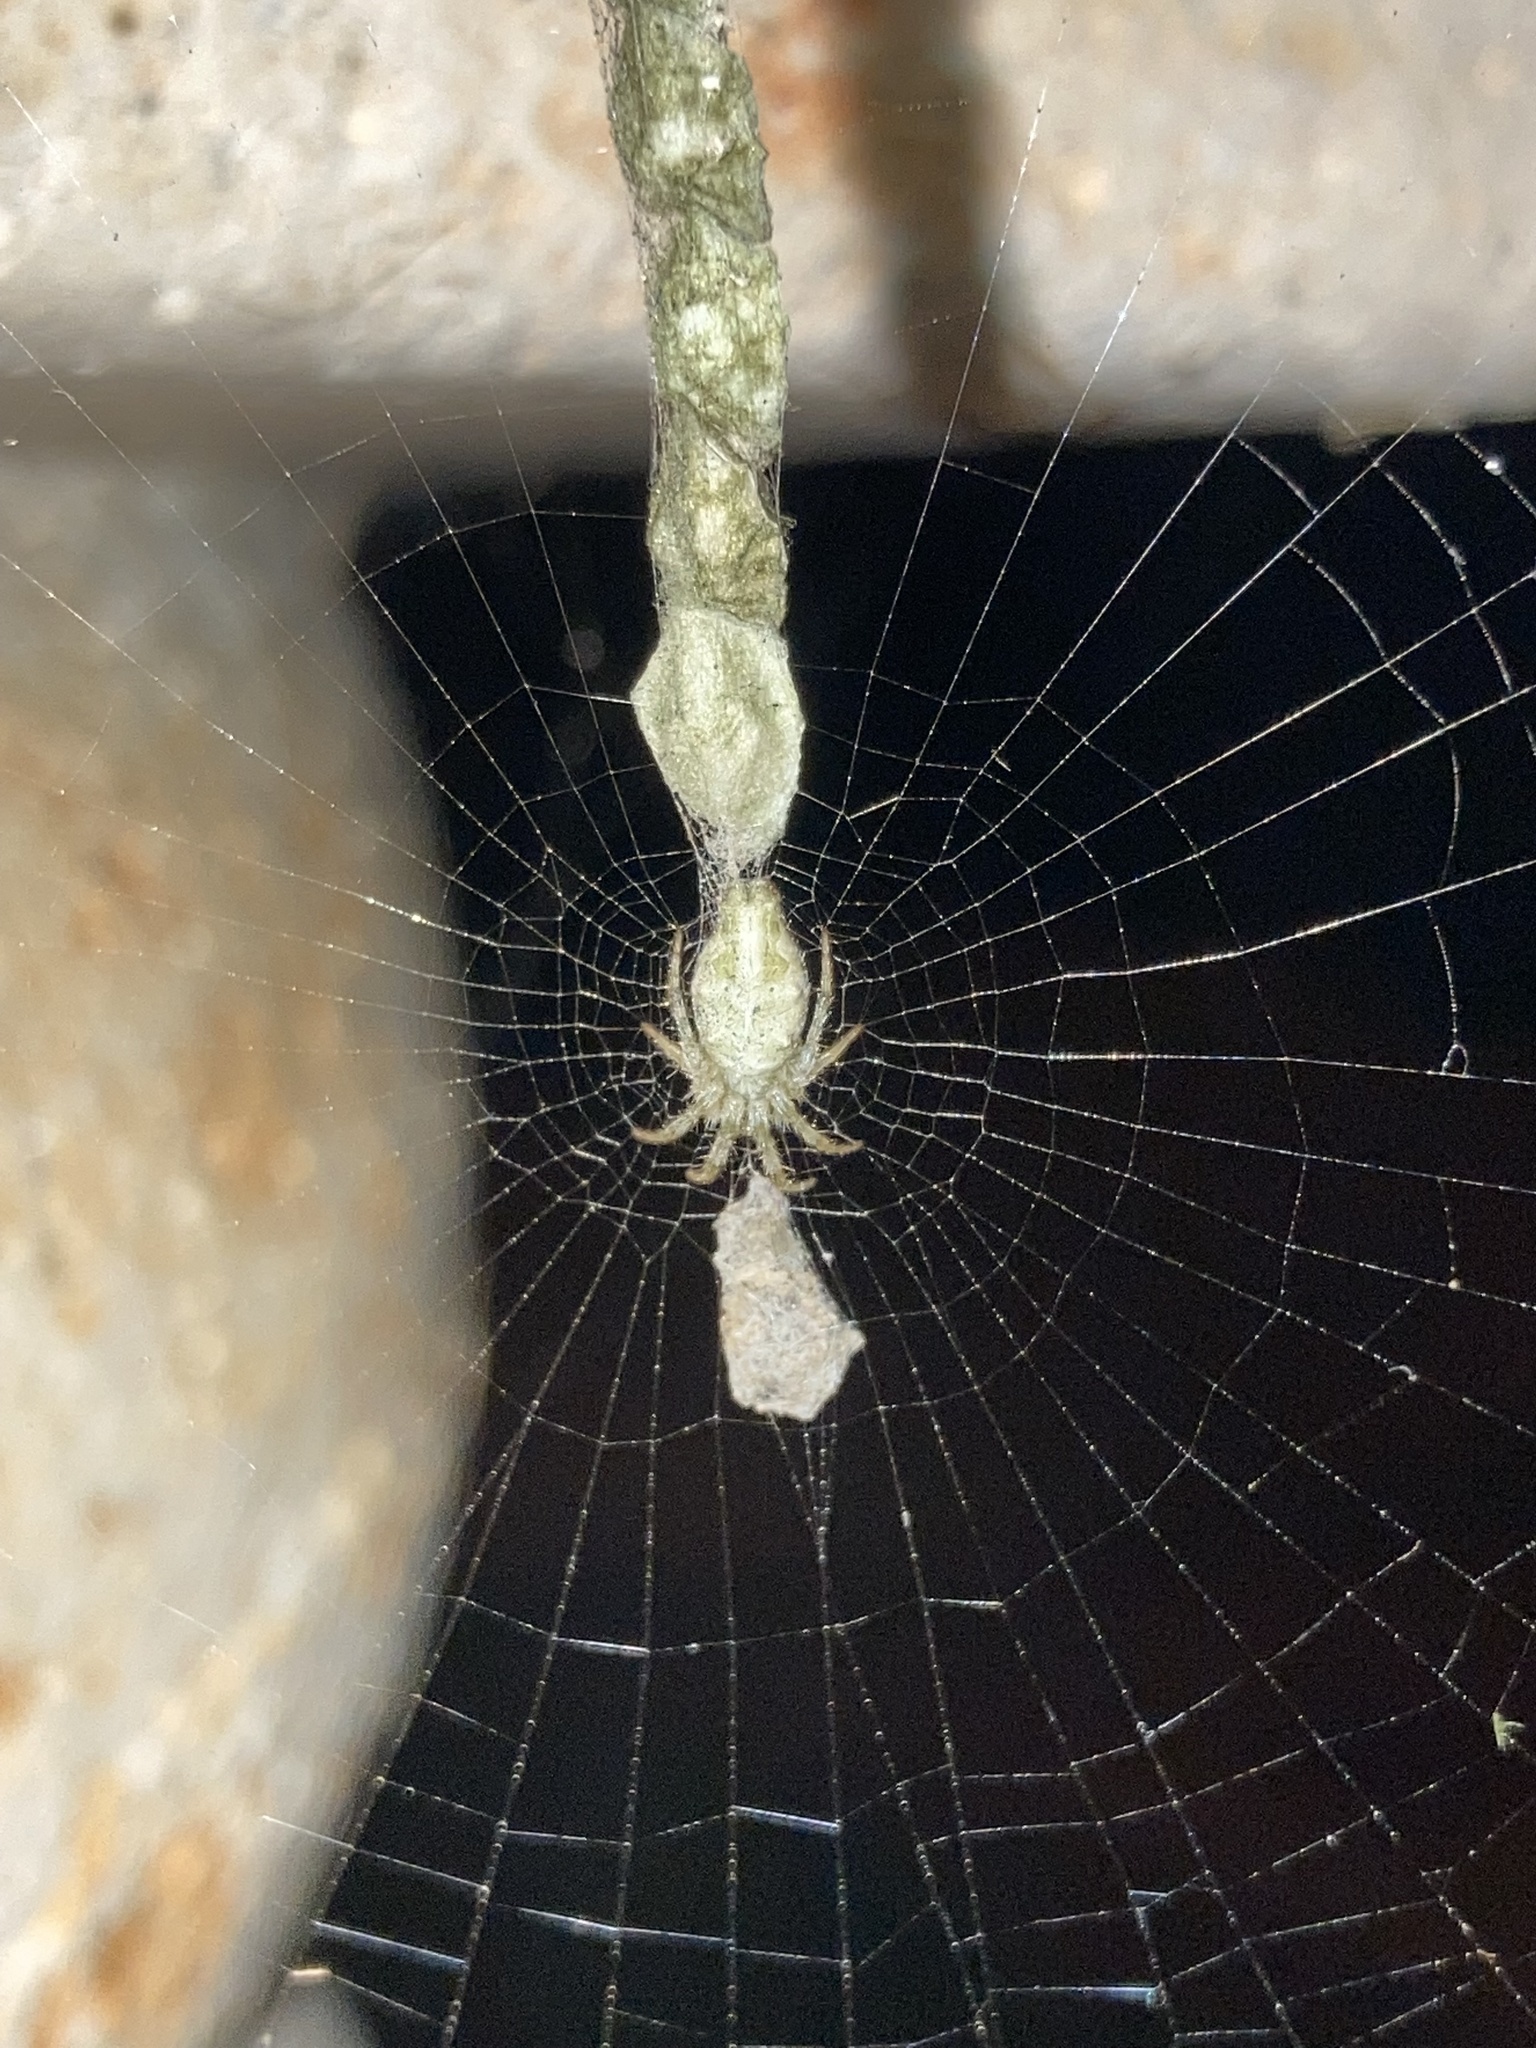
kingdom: Animalia
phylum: Arthropoda
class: Arachnida
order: Araneae
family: Araneidae
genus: Allocyclosa
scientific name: Allocyclosa bifurca
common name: Orb weavers
